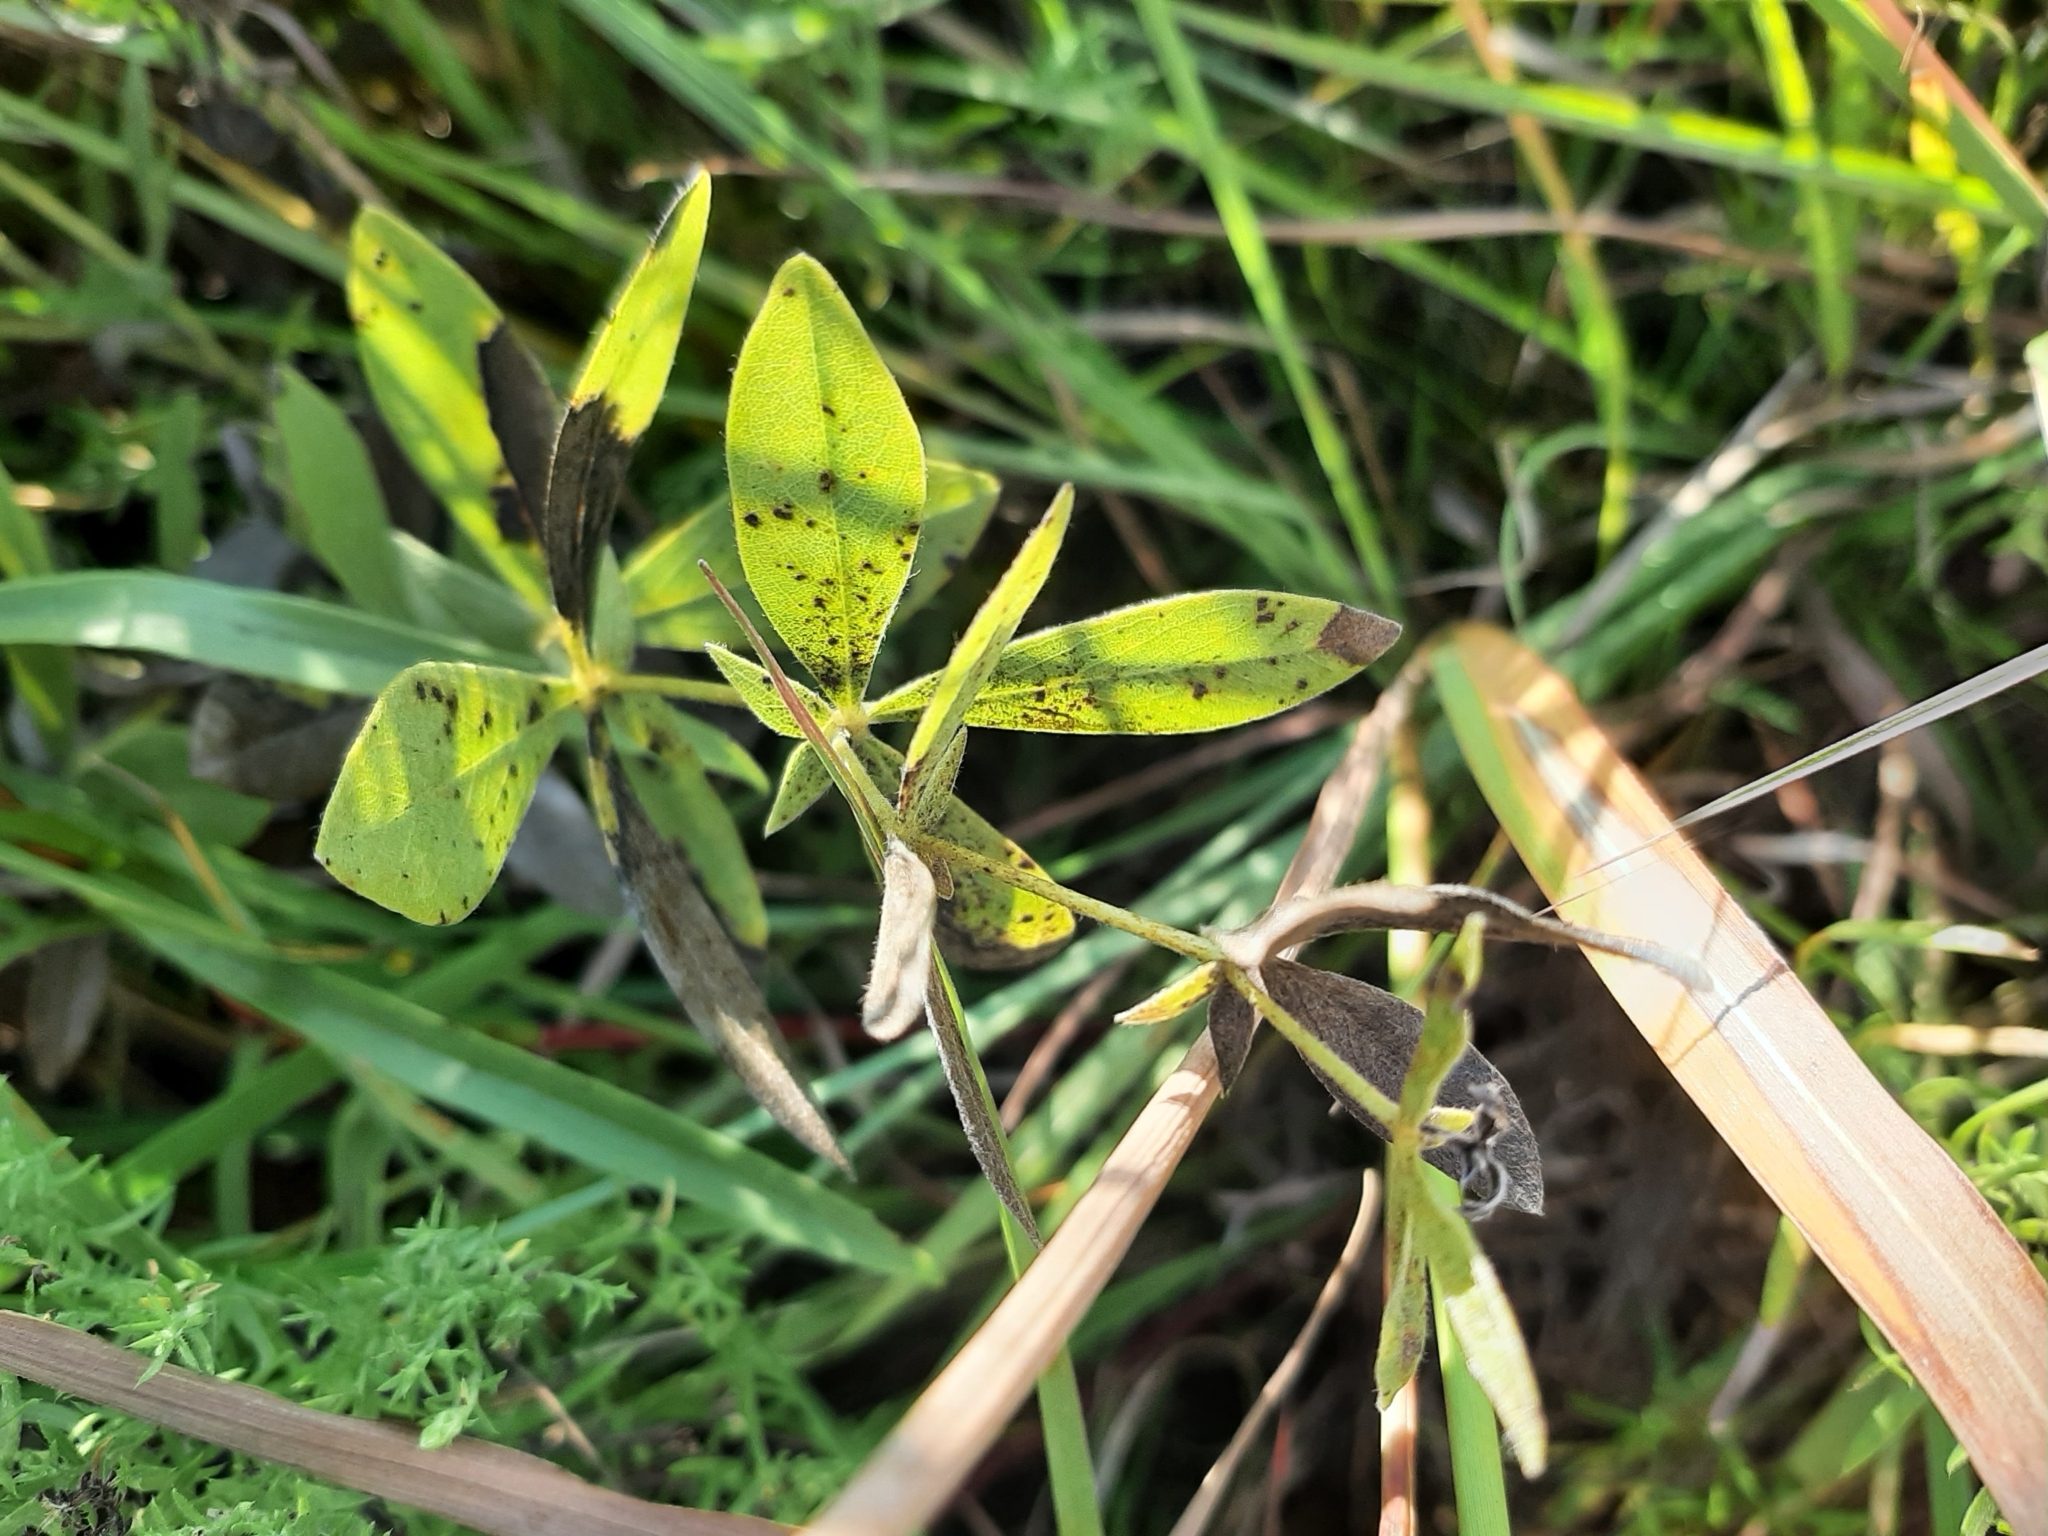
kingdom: Plantae
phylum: Tracheophyta
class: Magnoliopsida
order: Fabales
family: Fabaceae
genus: Baptisia
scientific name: Baptisia bracteata
